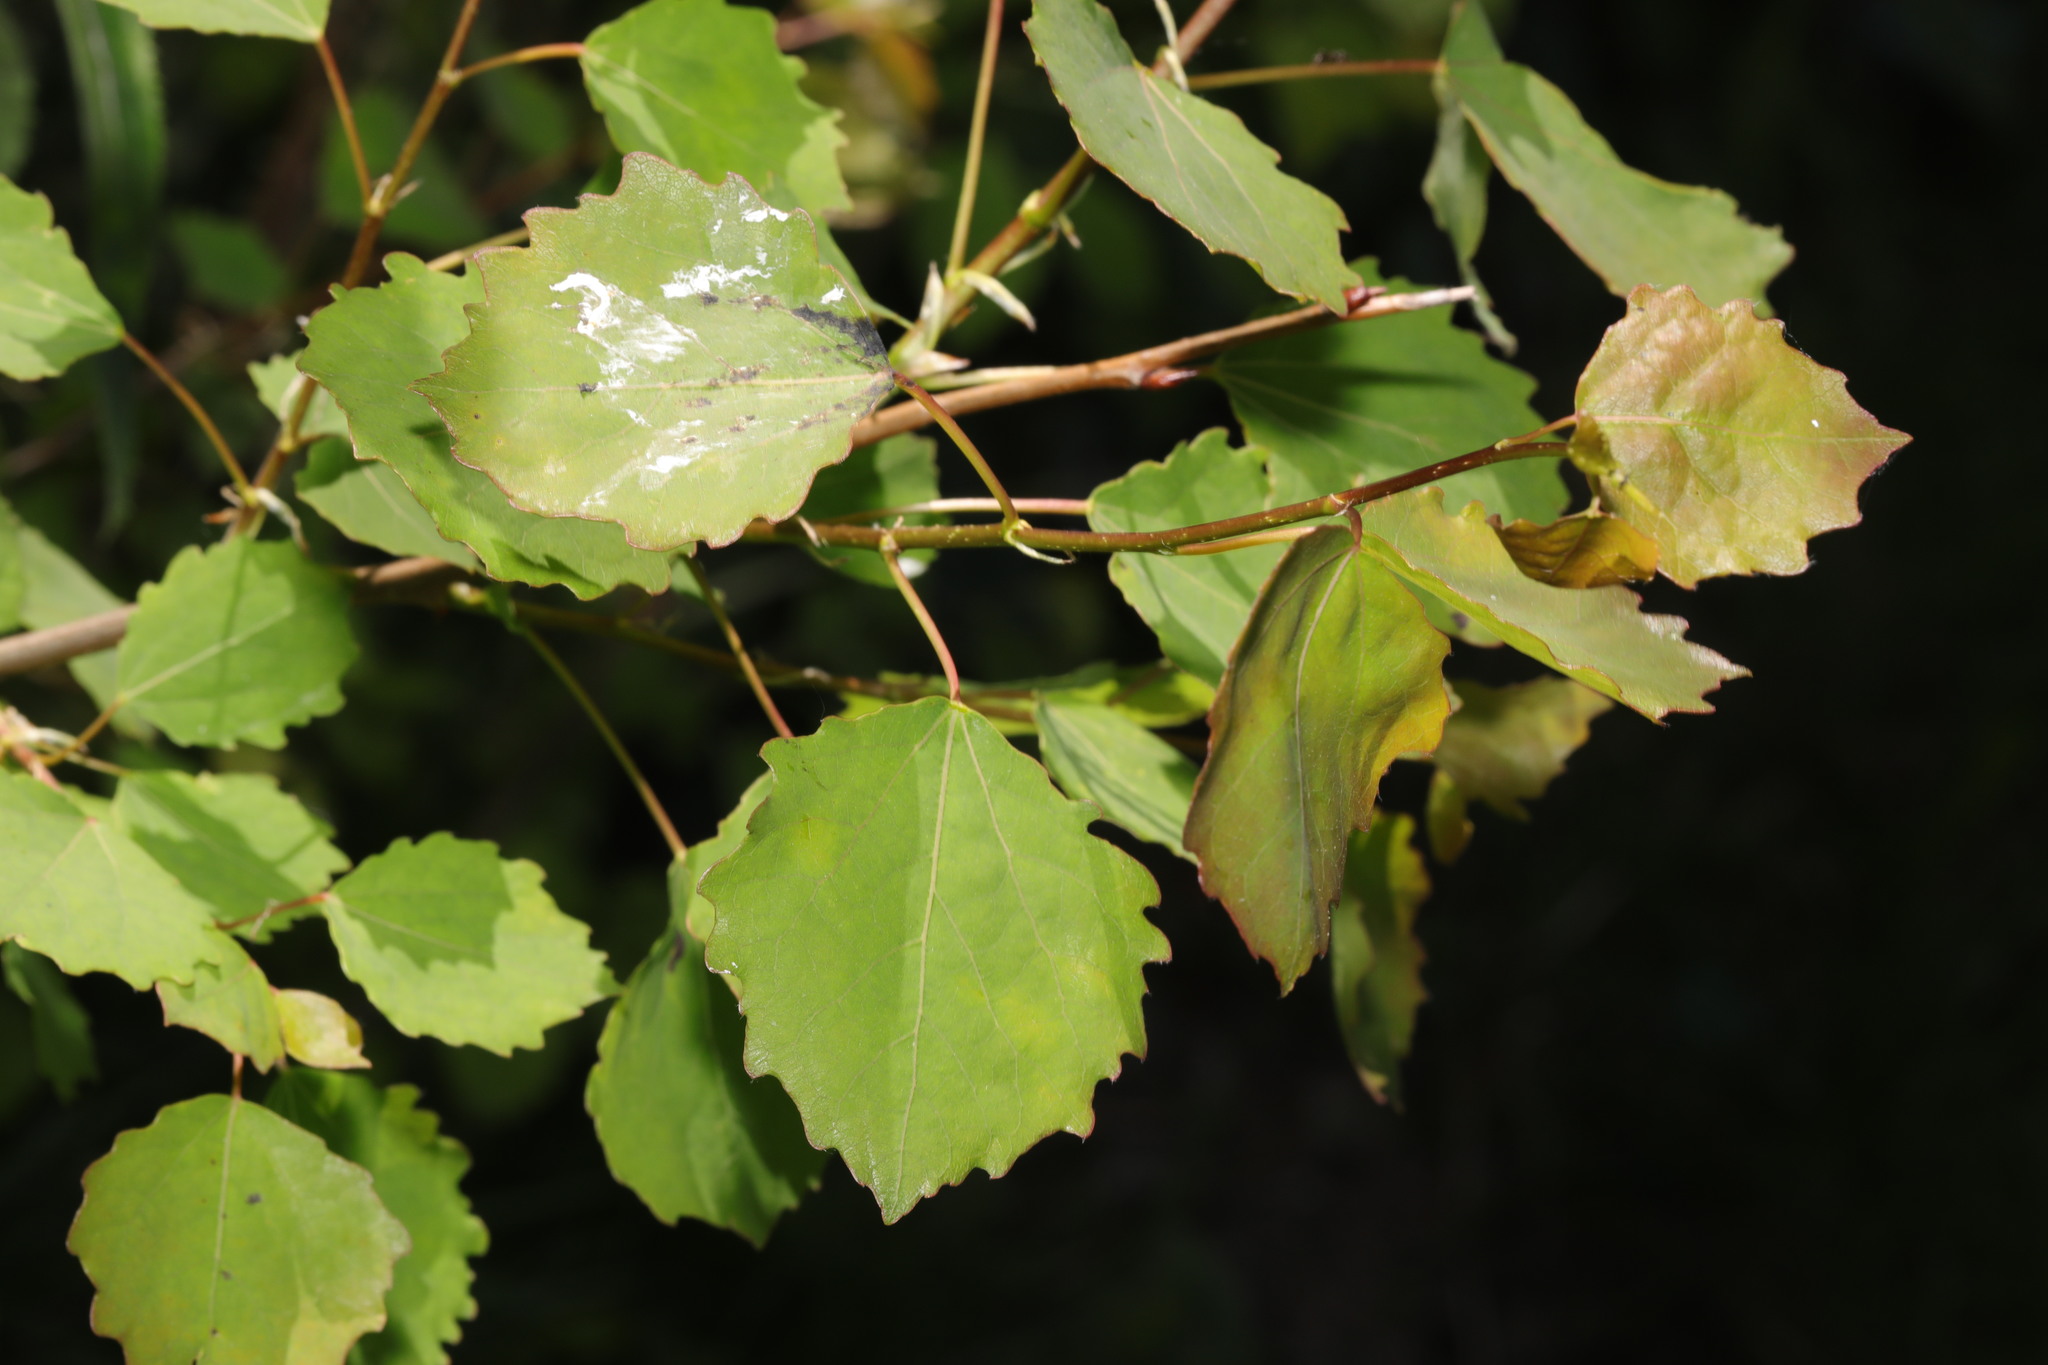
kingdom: Plantae
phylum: Tracheophyta
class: Magnoliopsida
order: Malpighiales
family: Salicaceae
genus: Populus
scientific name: Populus tremula
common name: European aspen
